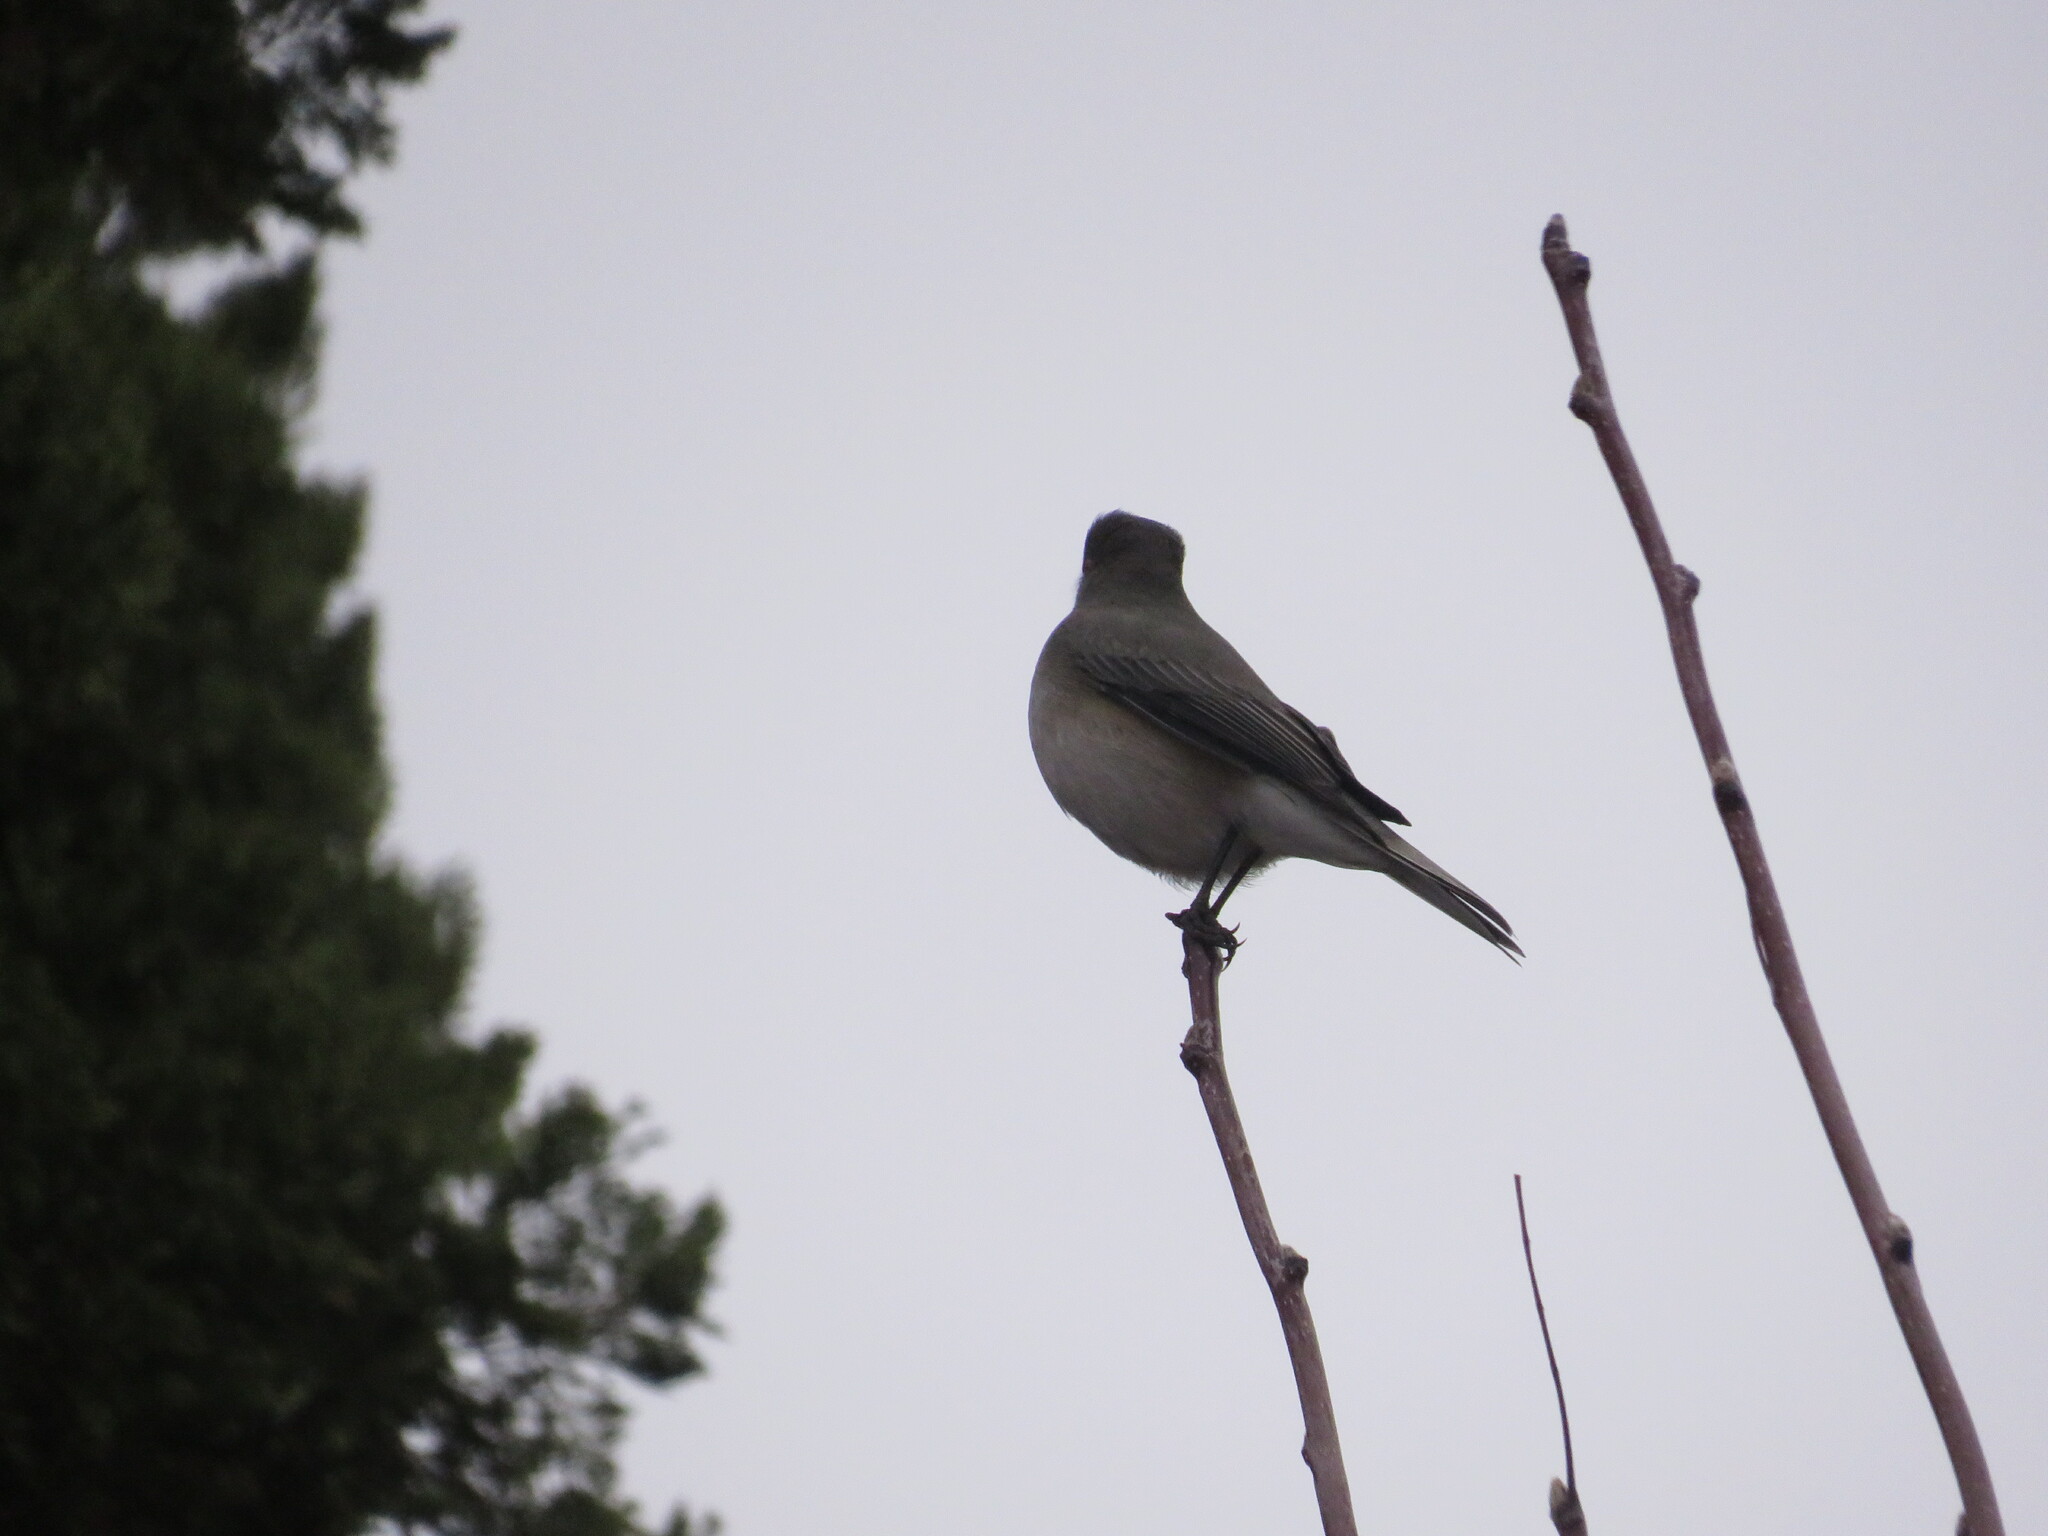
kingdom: Animalia
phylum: Chordata
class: Aves
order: Passeriformes
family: Tyrannidae
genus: Xolmis
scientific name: Xolmis pyrope
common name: Fire-eyed diucon
